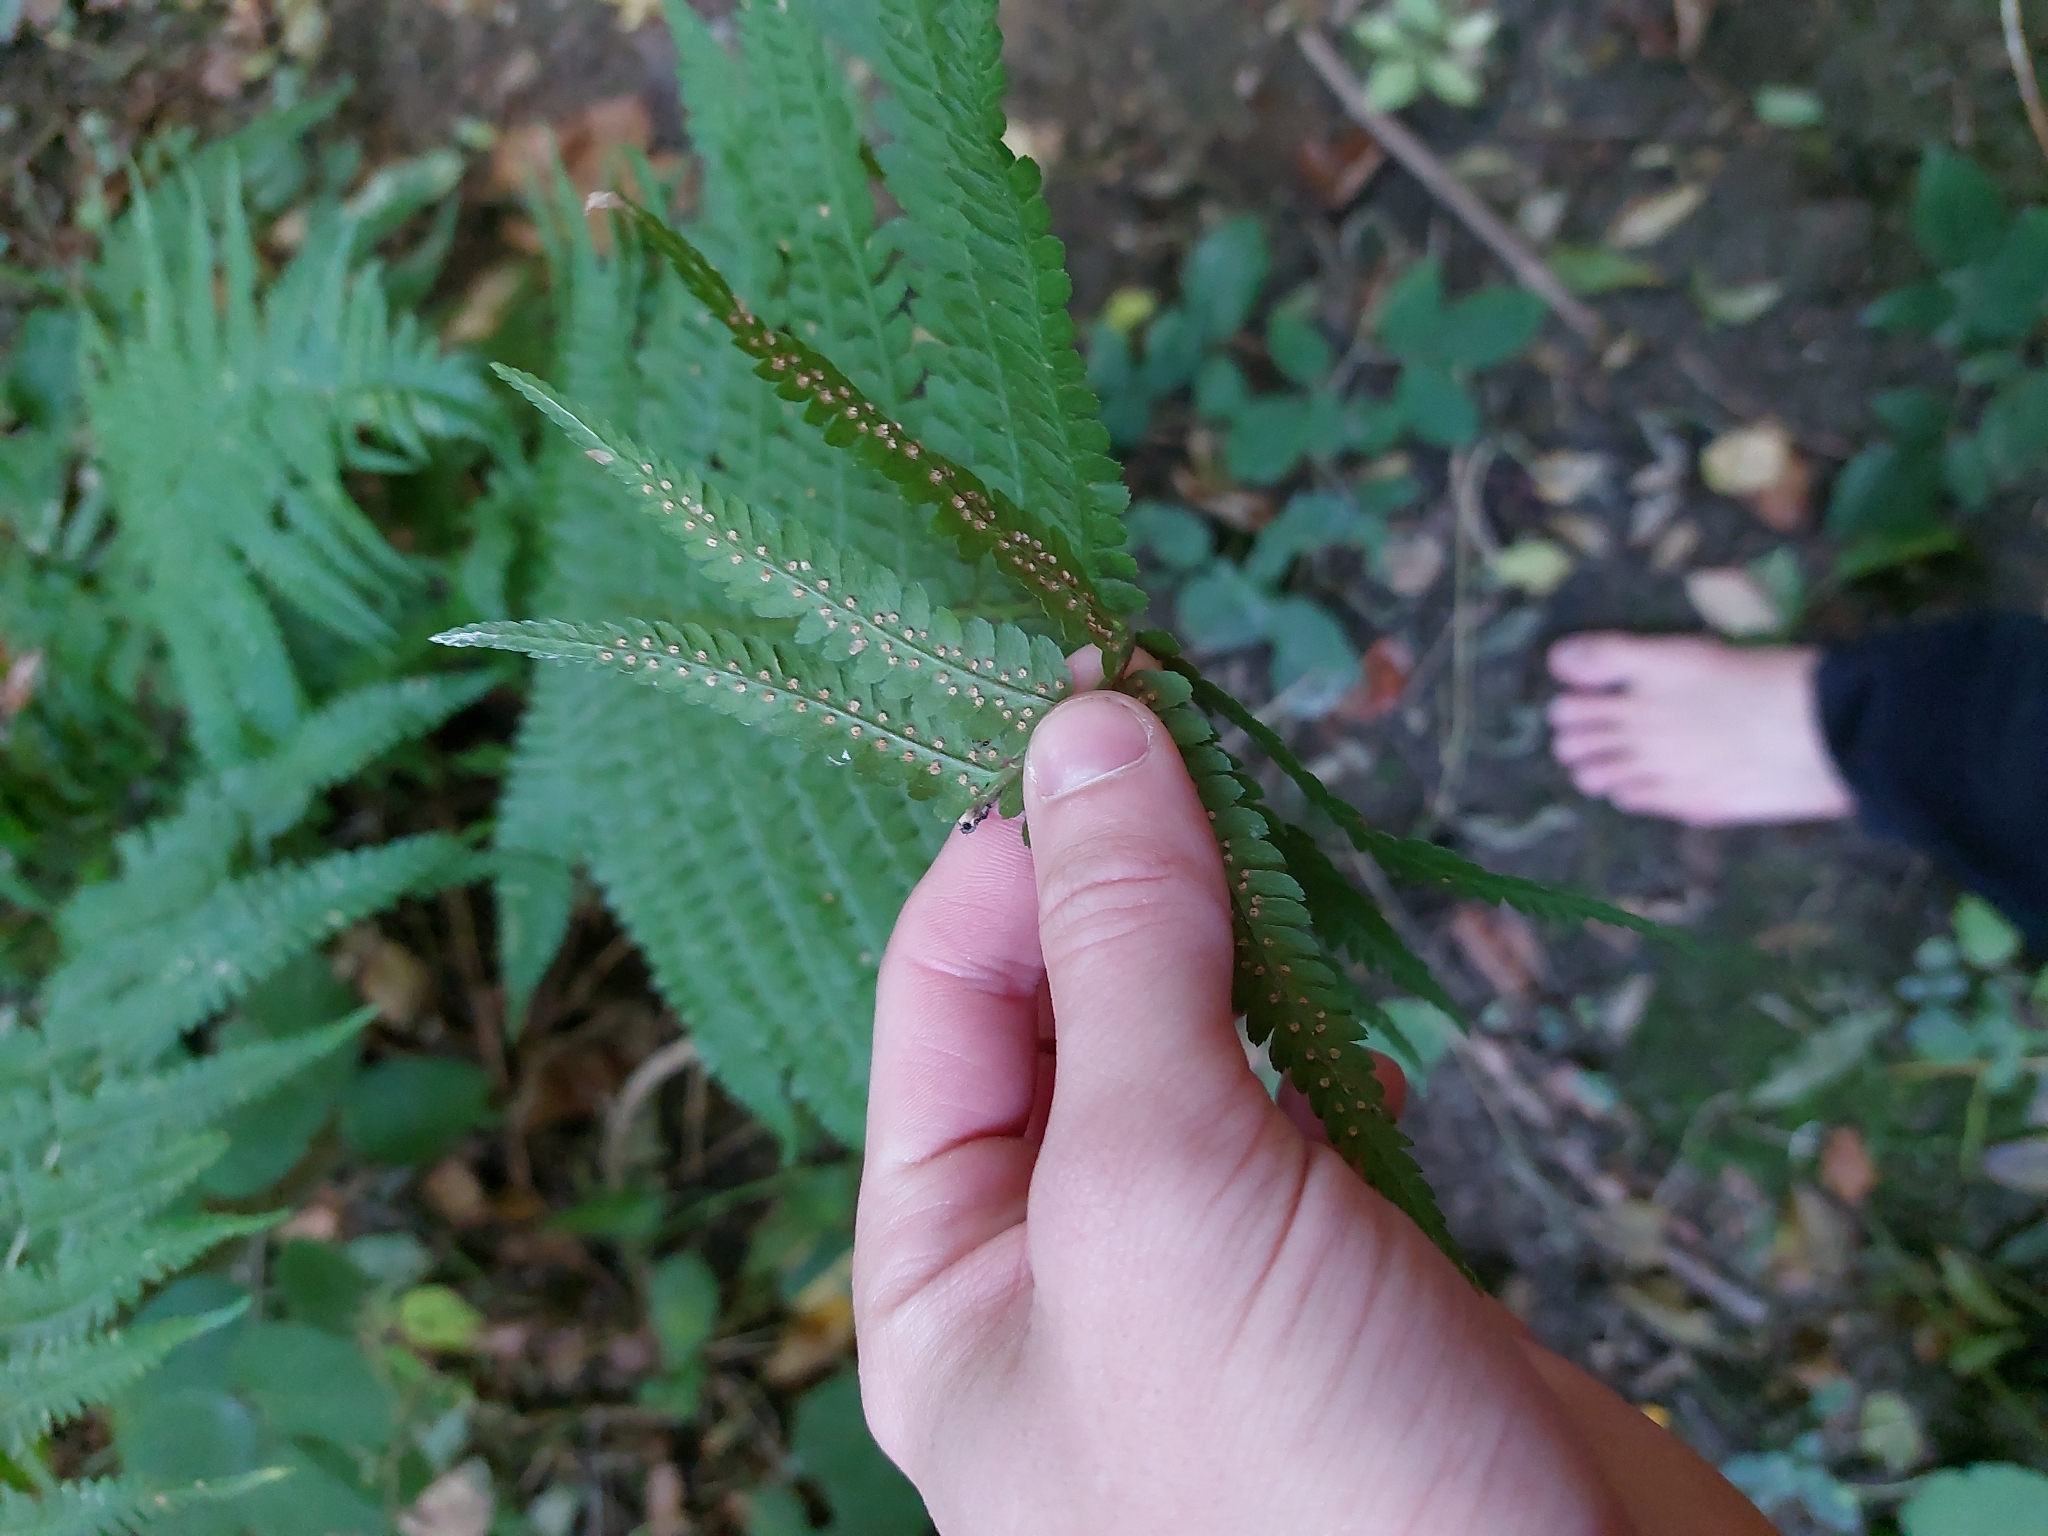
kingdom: Plantae
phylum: Tracheophyta
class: Polypodiopsida
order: Polypodiales
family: Dryopteridaceae
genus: Dryopteris
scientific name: Dryopteris filix-mas
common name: Male fern
